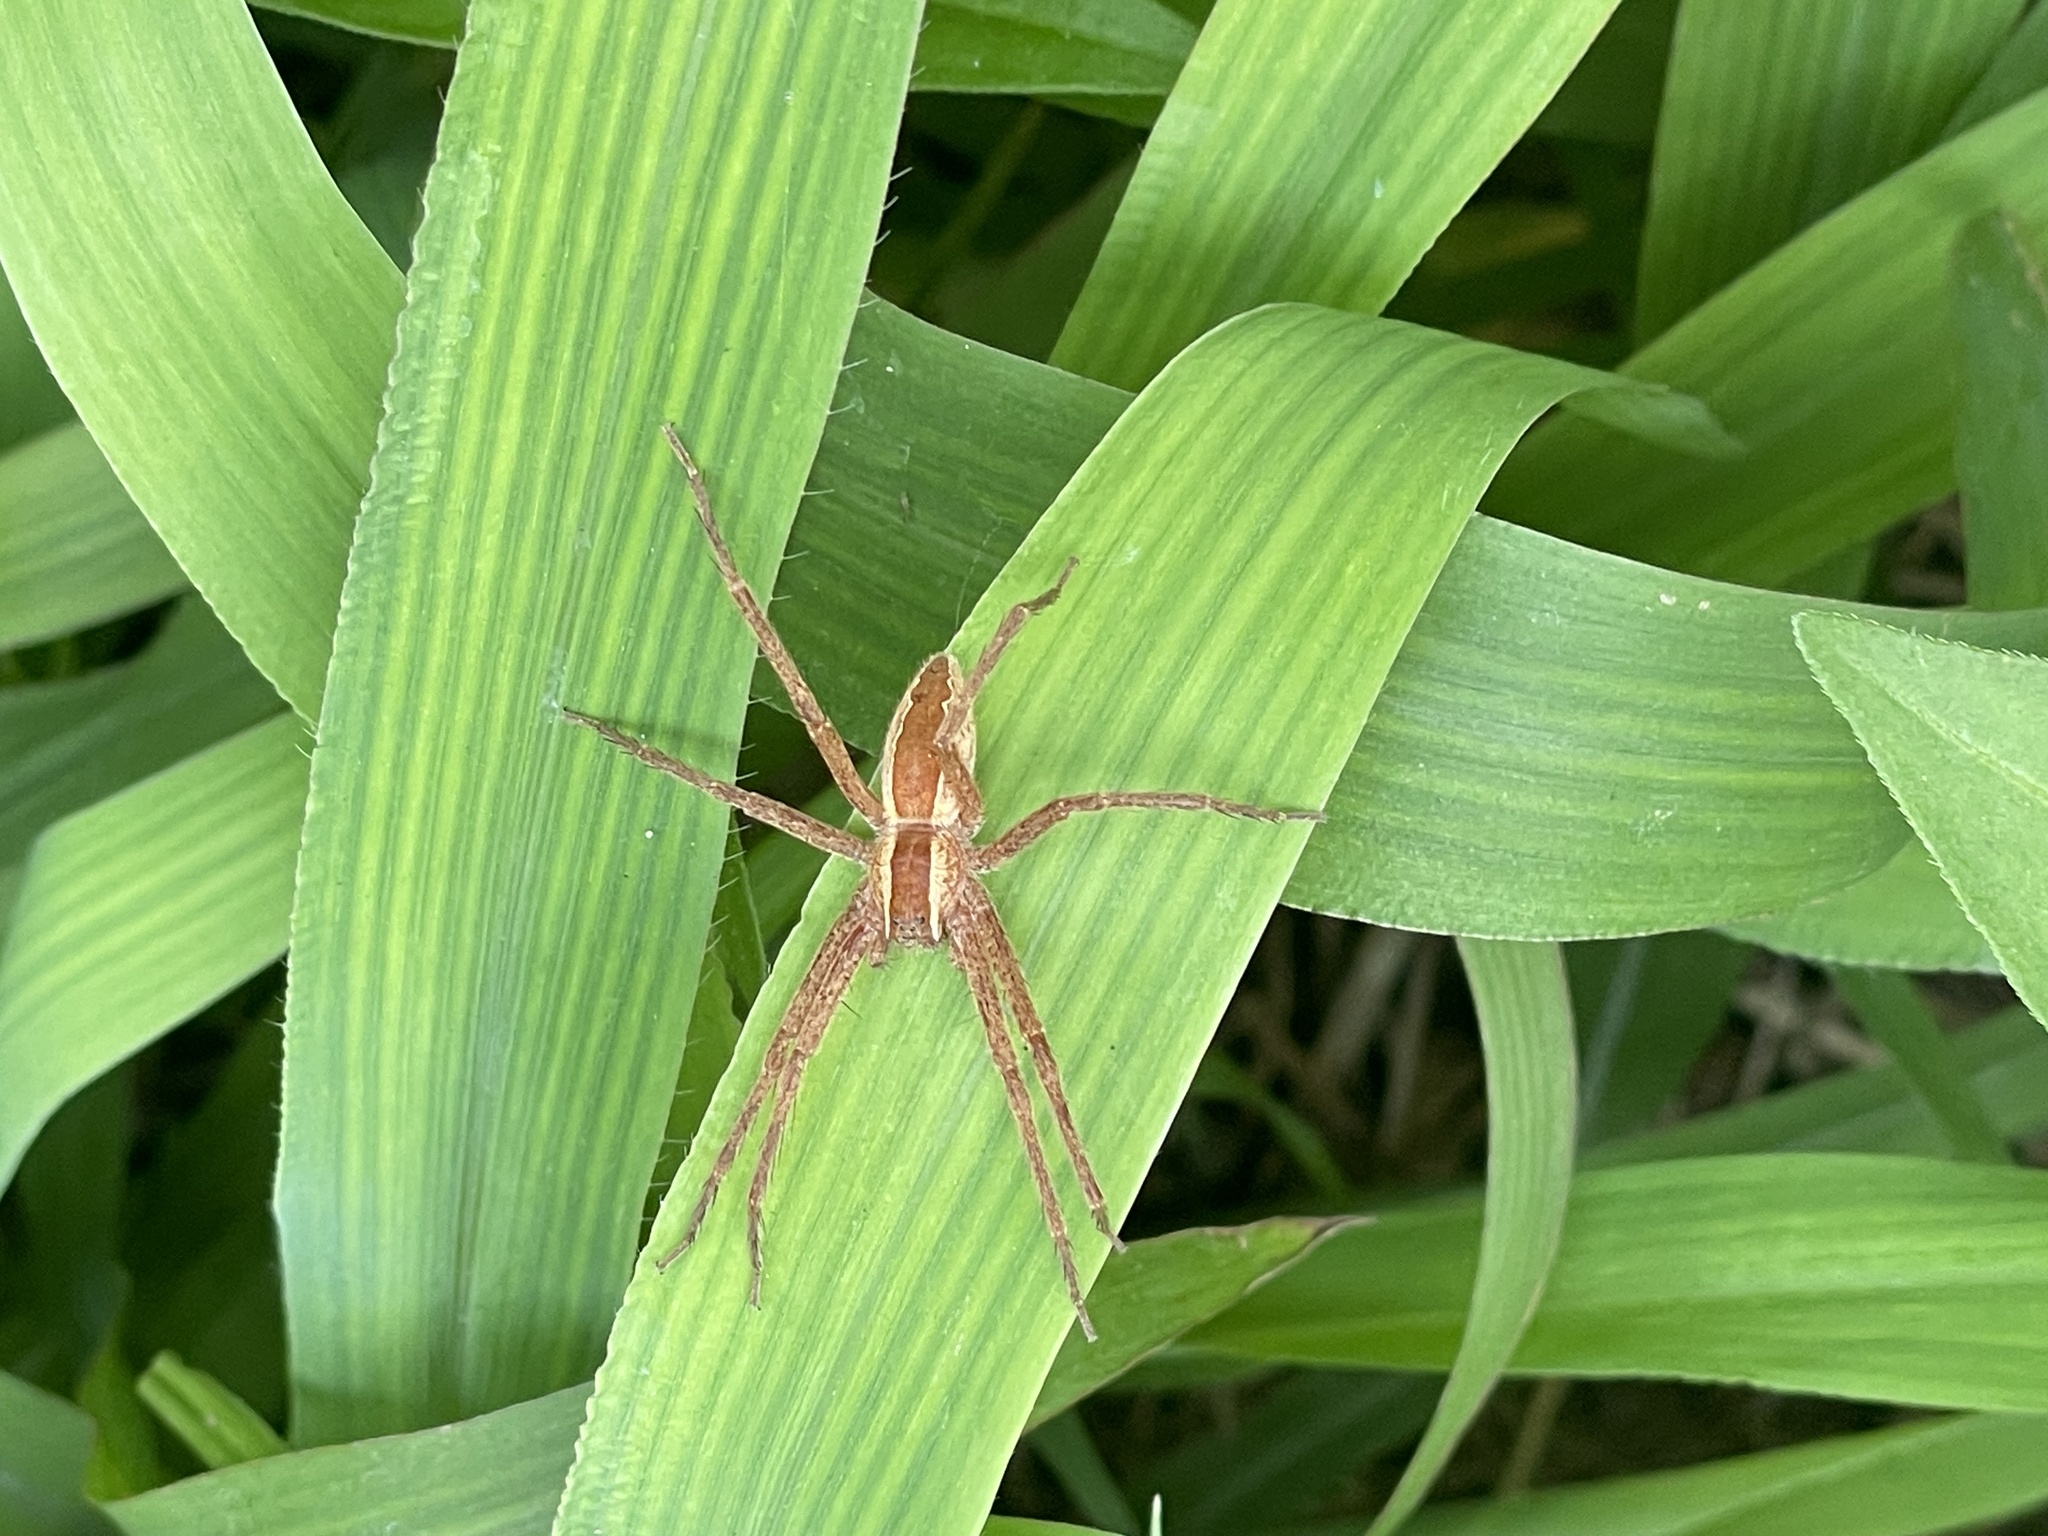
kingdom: Animalia
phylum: Arthropoda
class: Arachnida
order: Araneae
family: Pisauridae
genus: Pisaurina
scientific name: Pisaurina mira
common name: American nursery web spider
